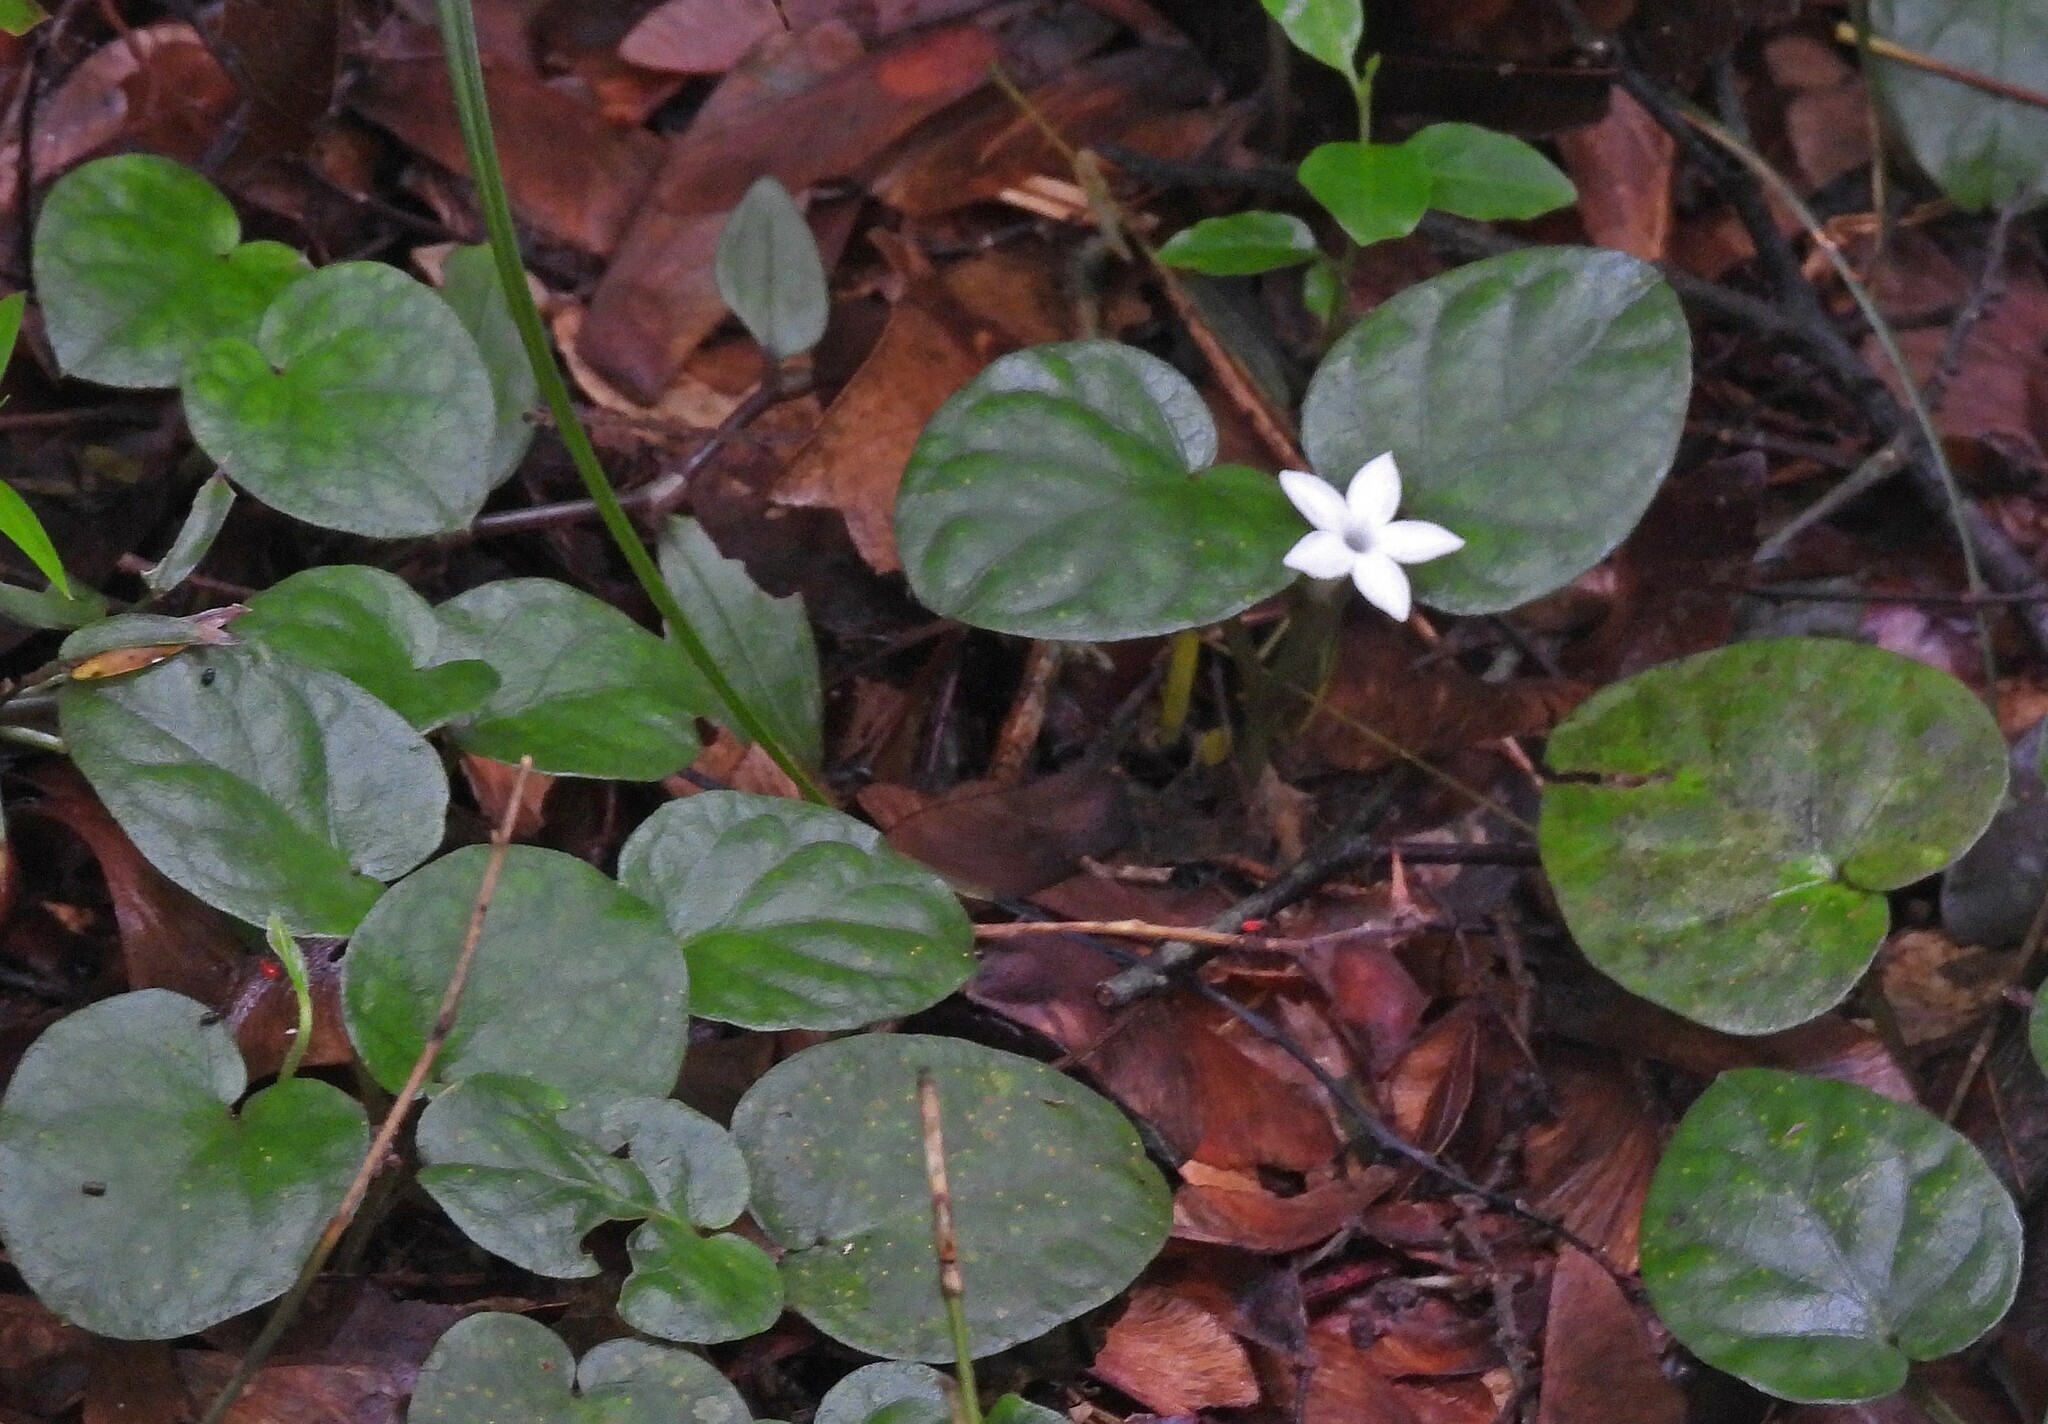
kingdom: Plantae
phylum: Tracheophyta
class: Magnoliopsida
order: Gentianales
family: Rubiaceae
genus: Geophila
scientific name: Geophila repens
